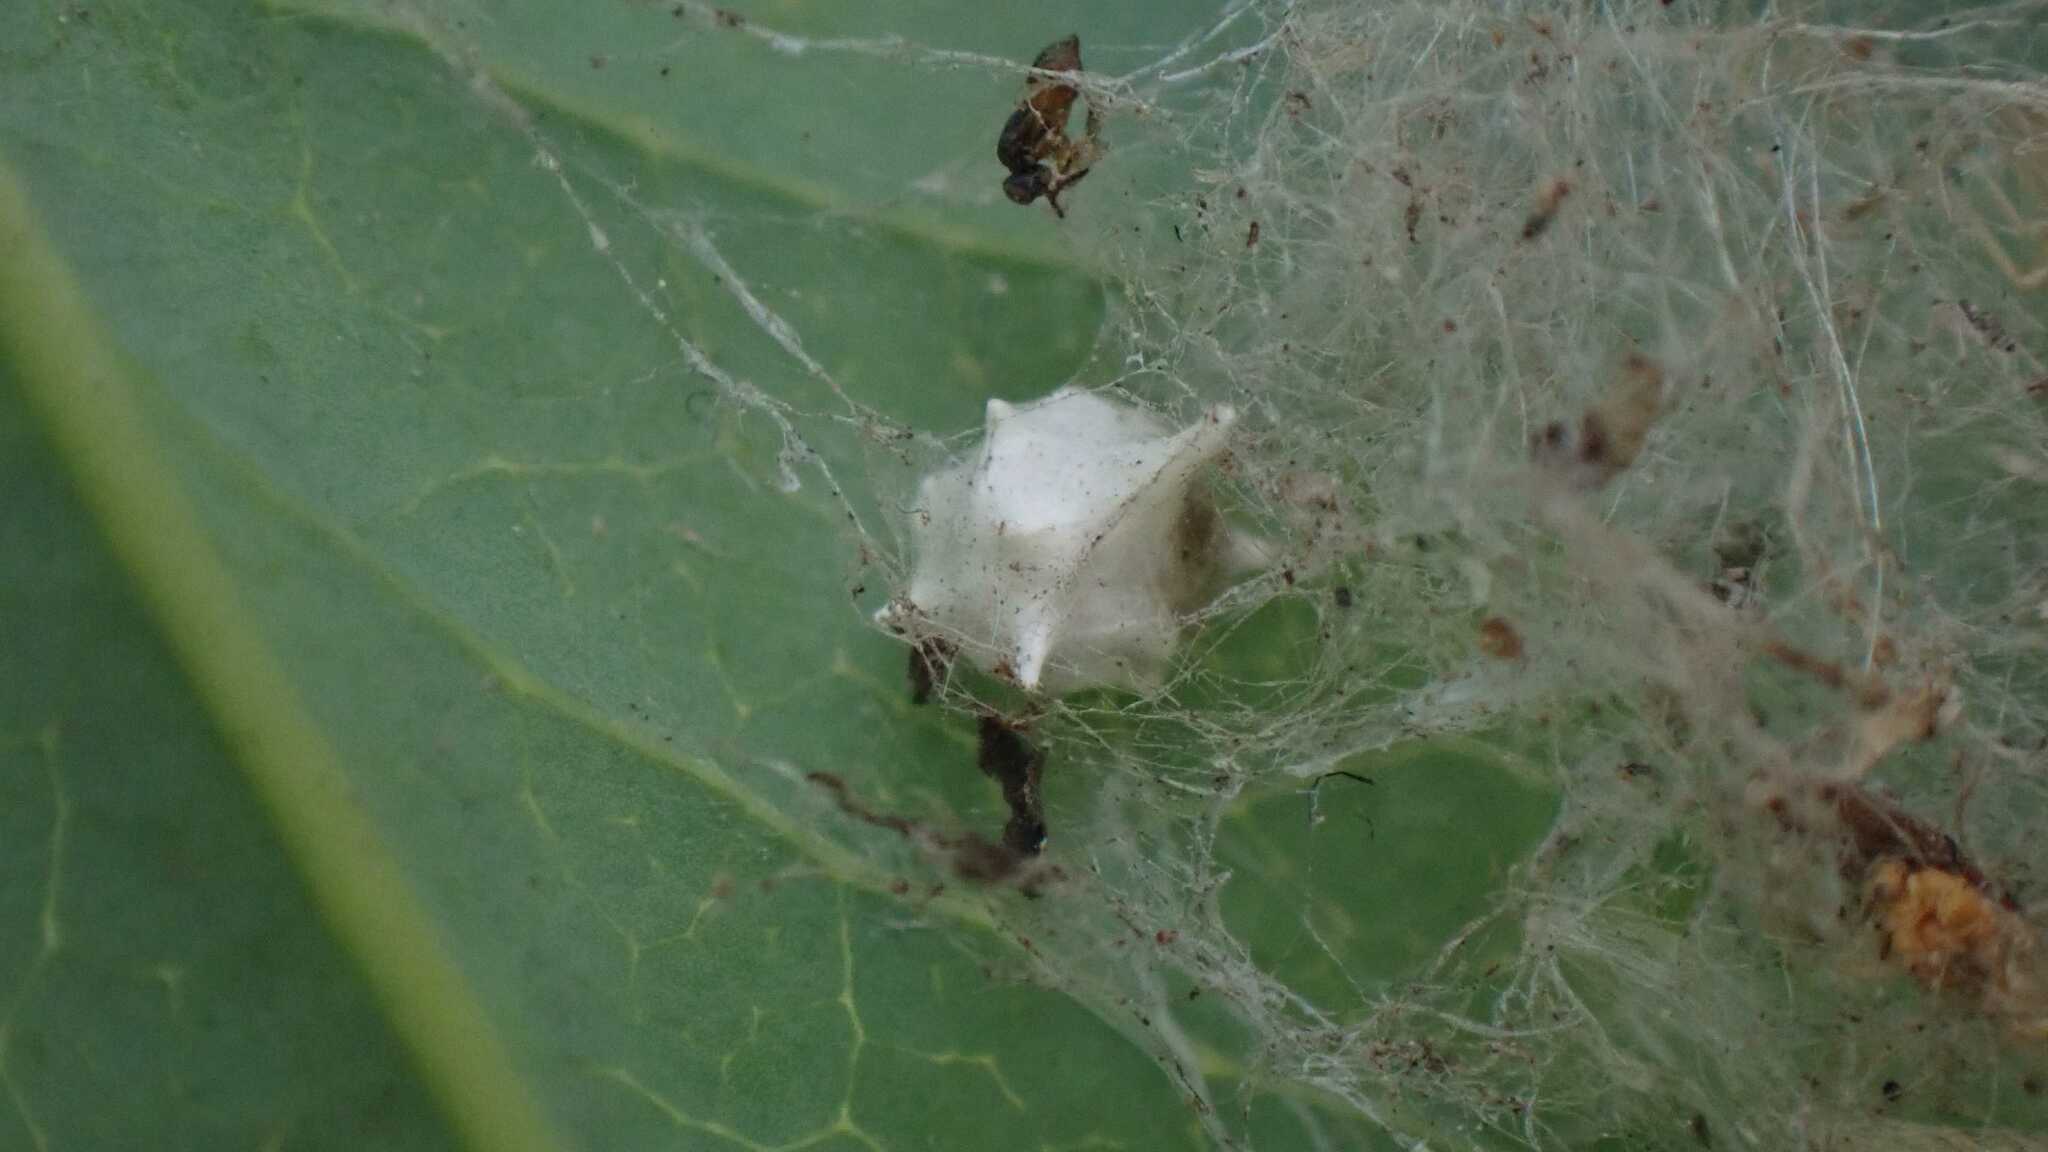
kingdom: Animalia
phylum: Arthropoda
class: Arachnida
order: Araneae
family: Theridiidae
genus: Paidiscura
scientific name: Paidiscura pallens
